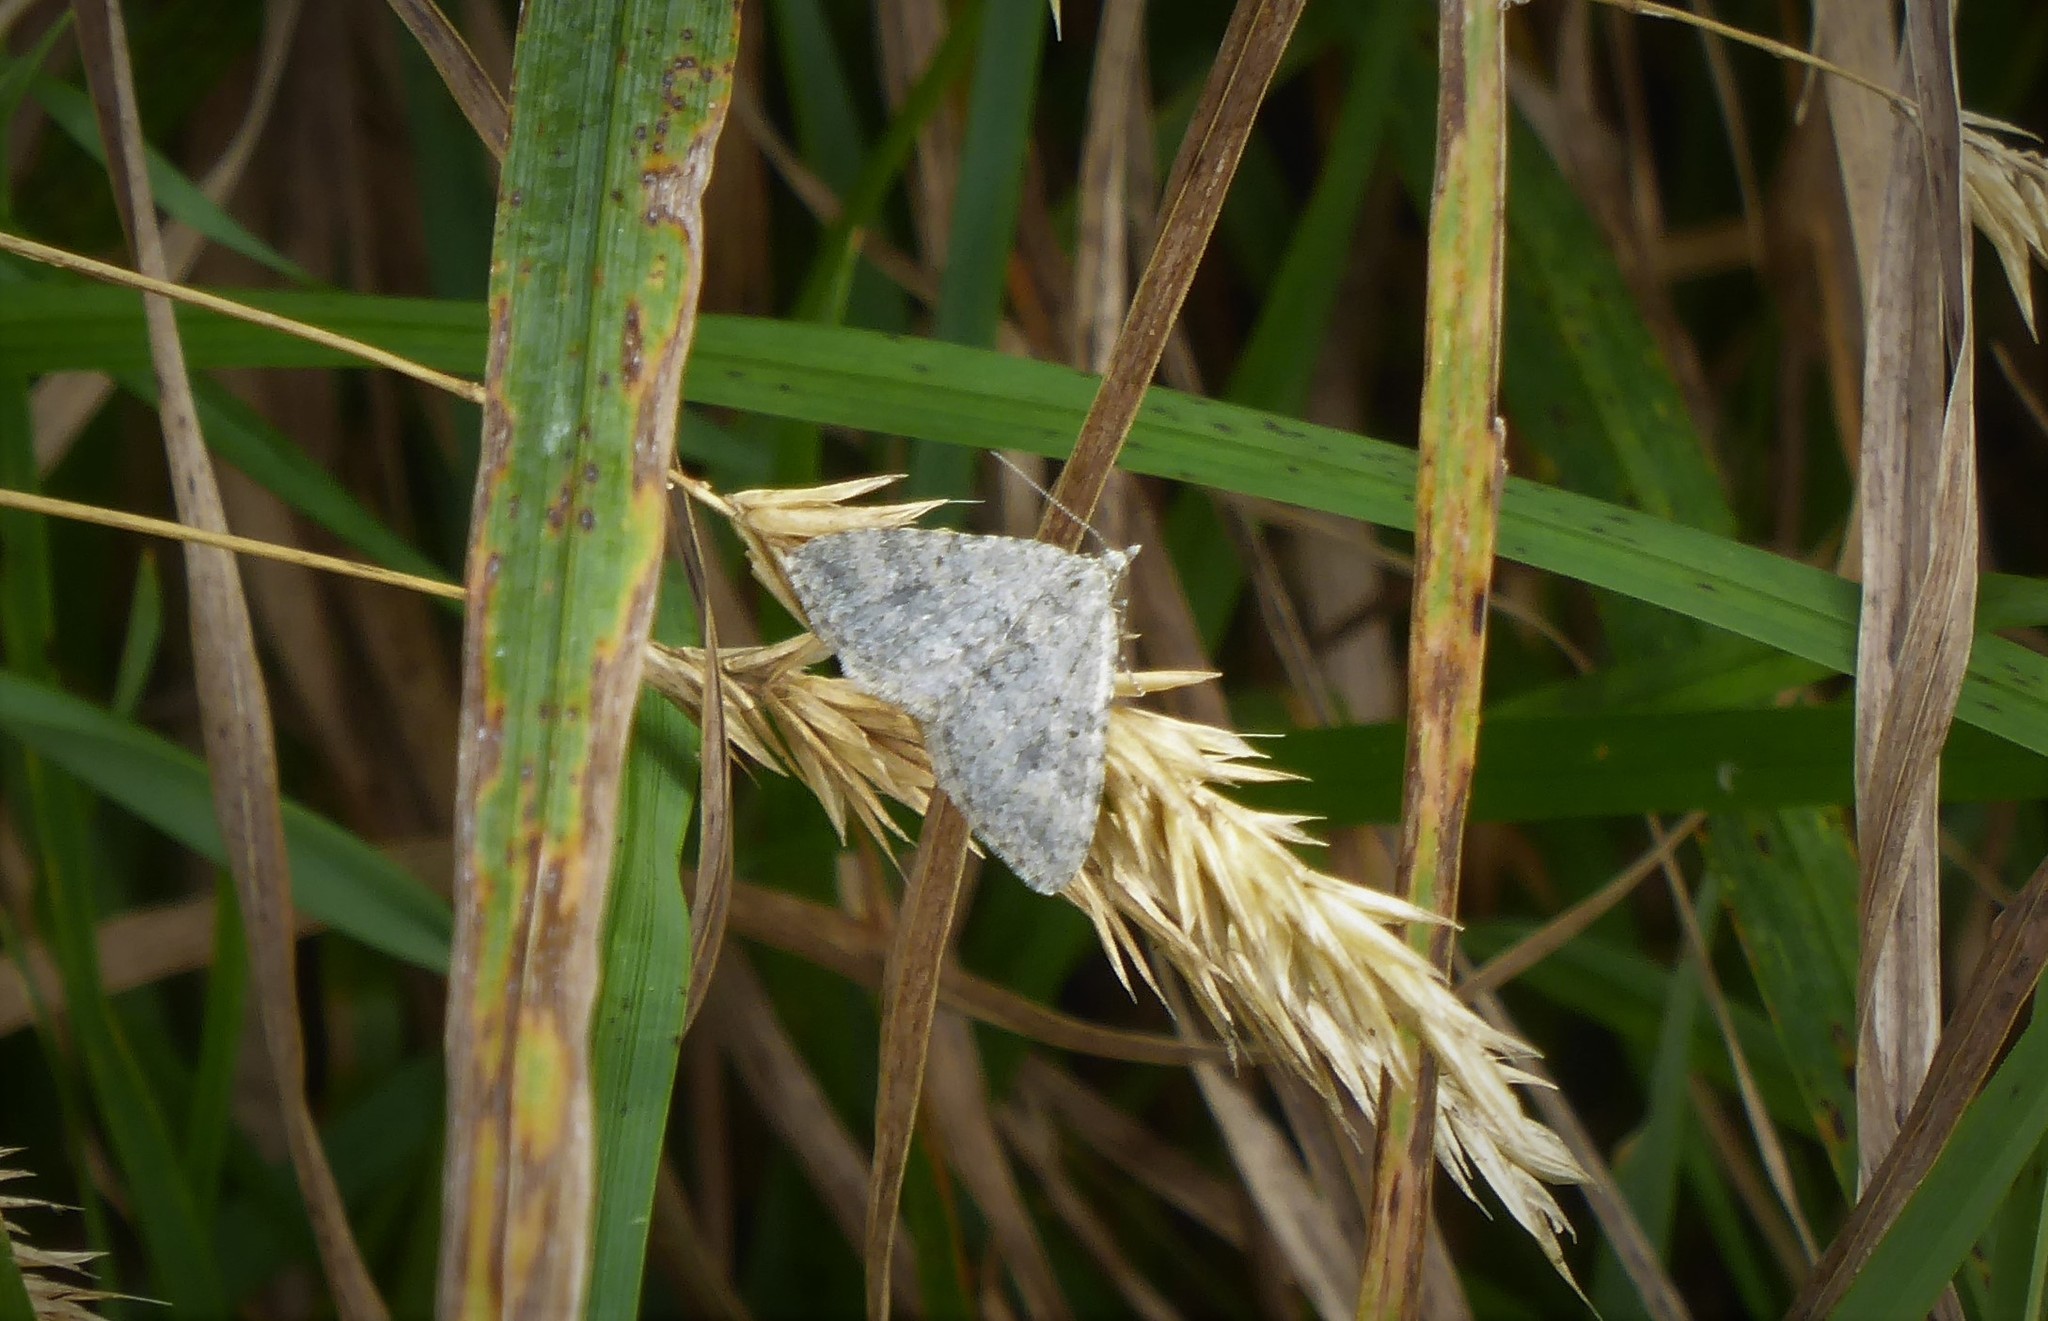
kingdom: Animalia
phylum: Arthropoda
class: Insecta
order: Lepidoptera
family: Geometridae
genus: Helastia
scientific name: Helastia corcularia
